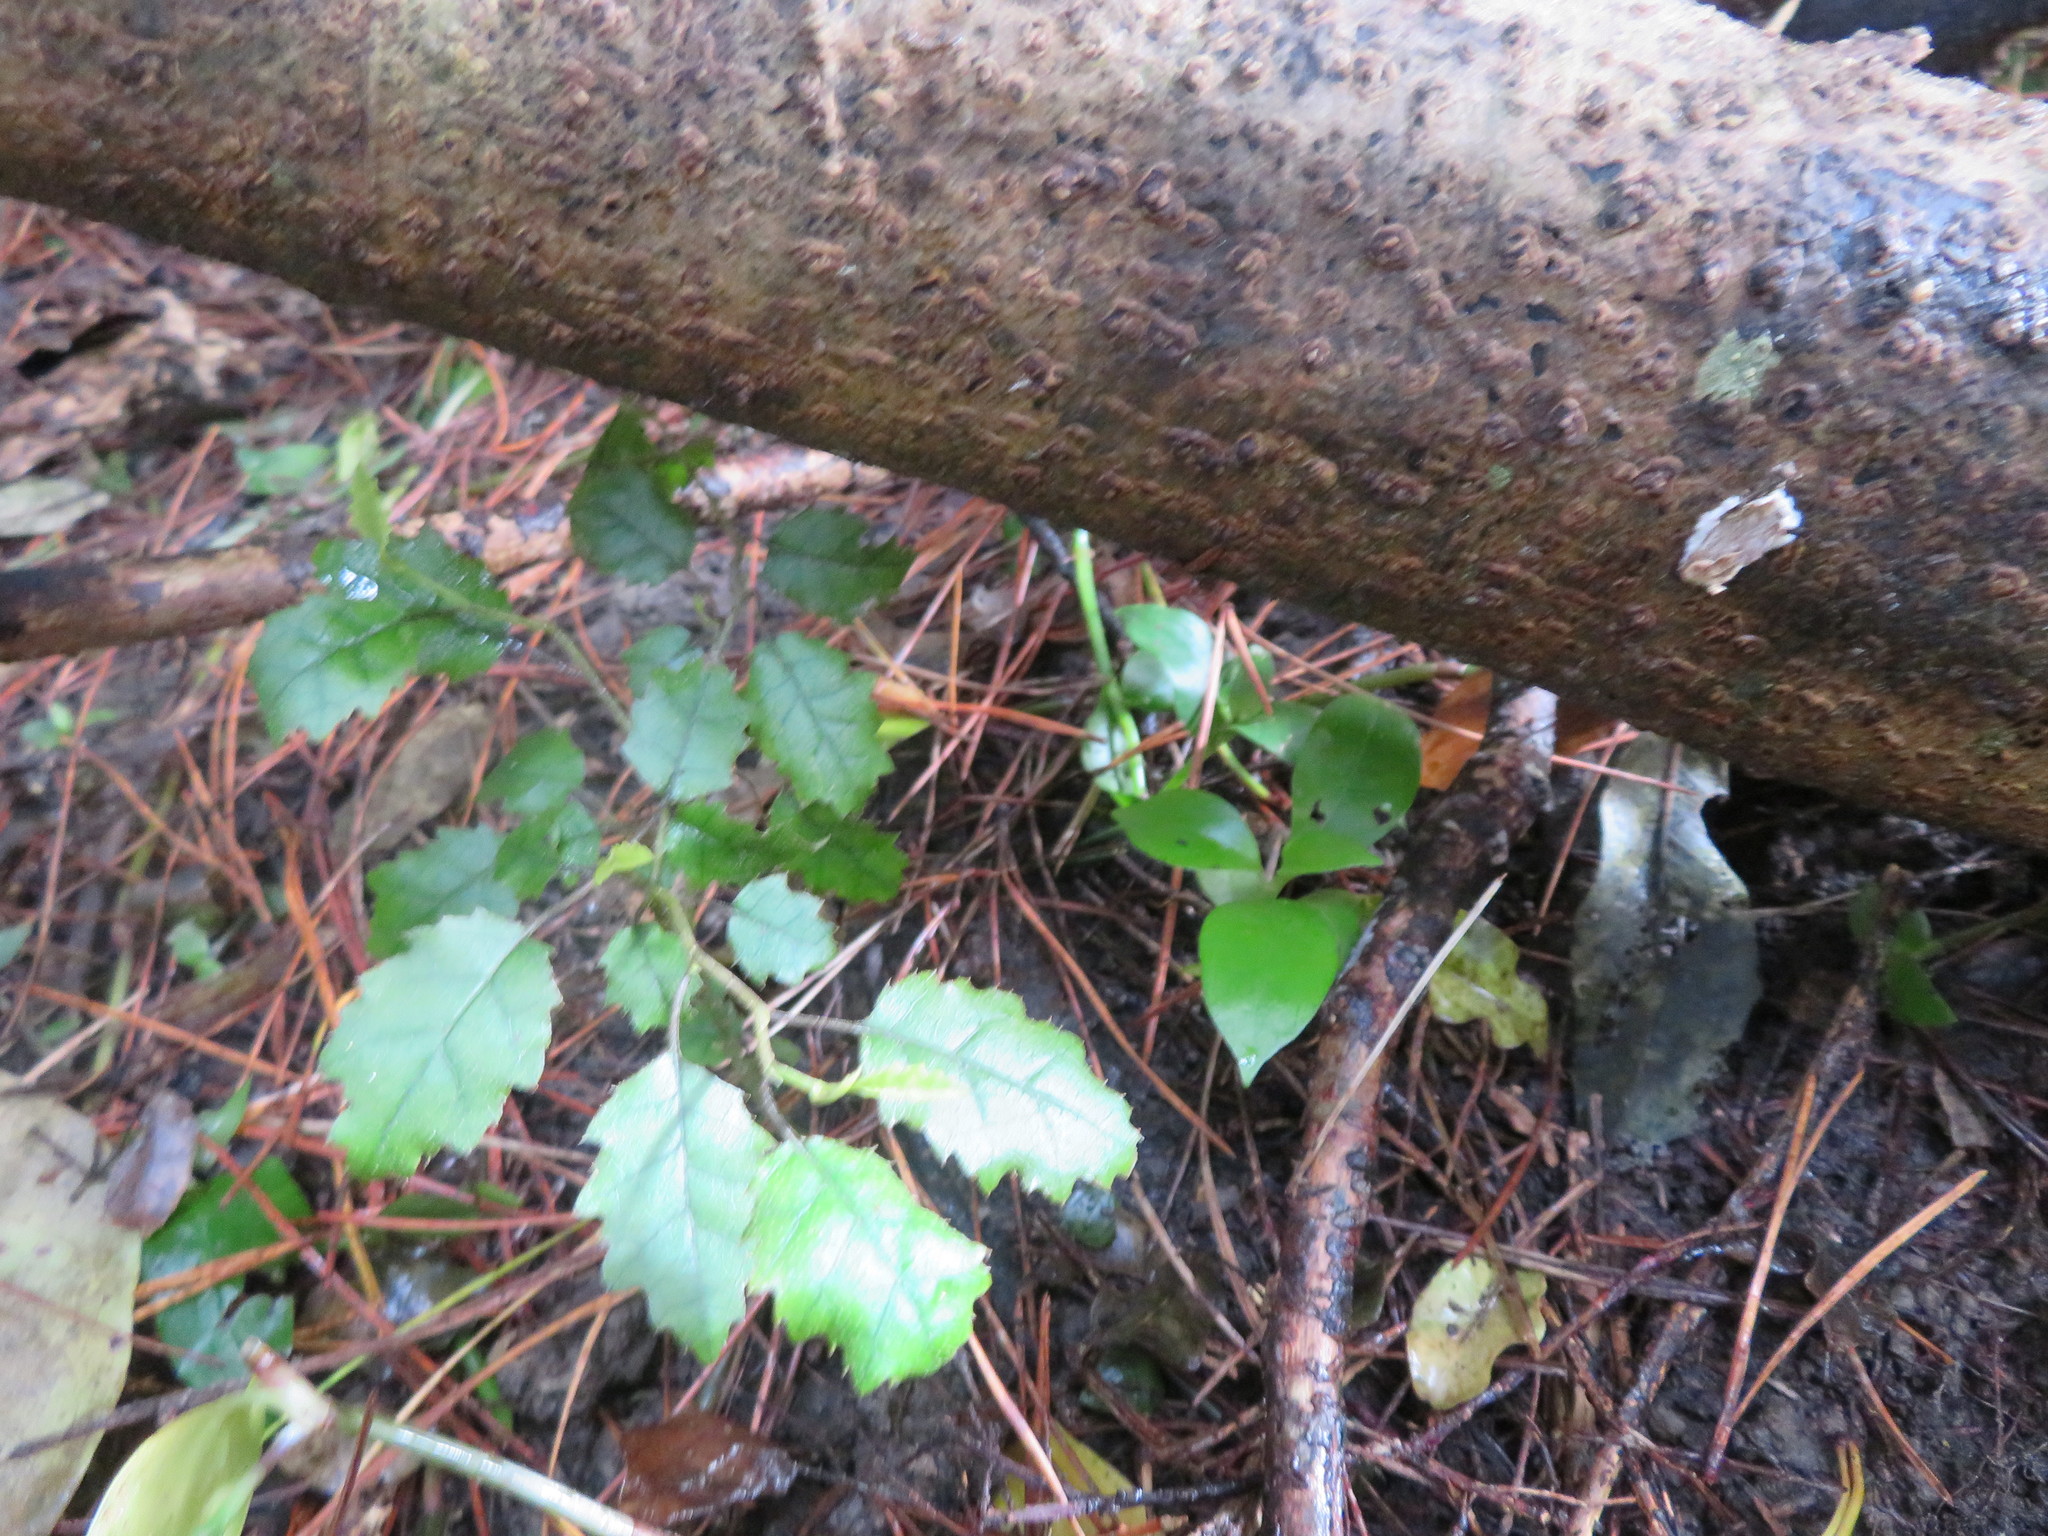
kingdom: Plantae
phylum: Tracheophyta
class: Magnoliopsida
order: Gentianales
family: Loganiaceae
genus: Geniostoma
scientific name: Geniostoma ligustrifolium
